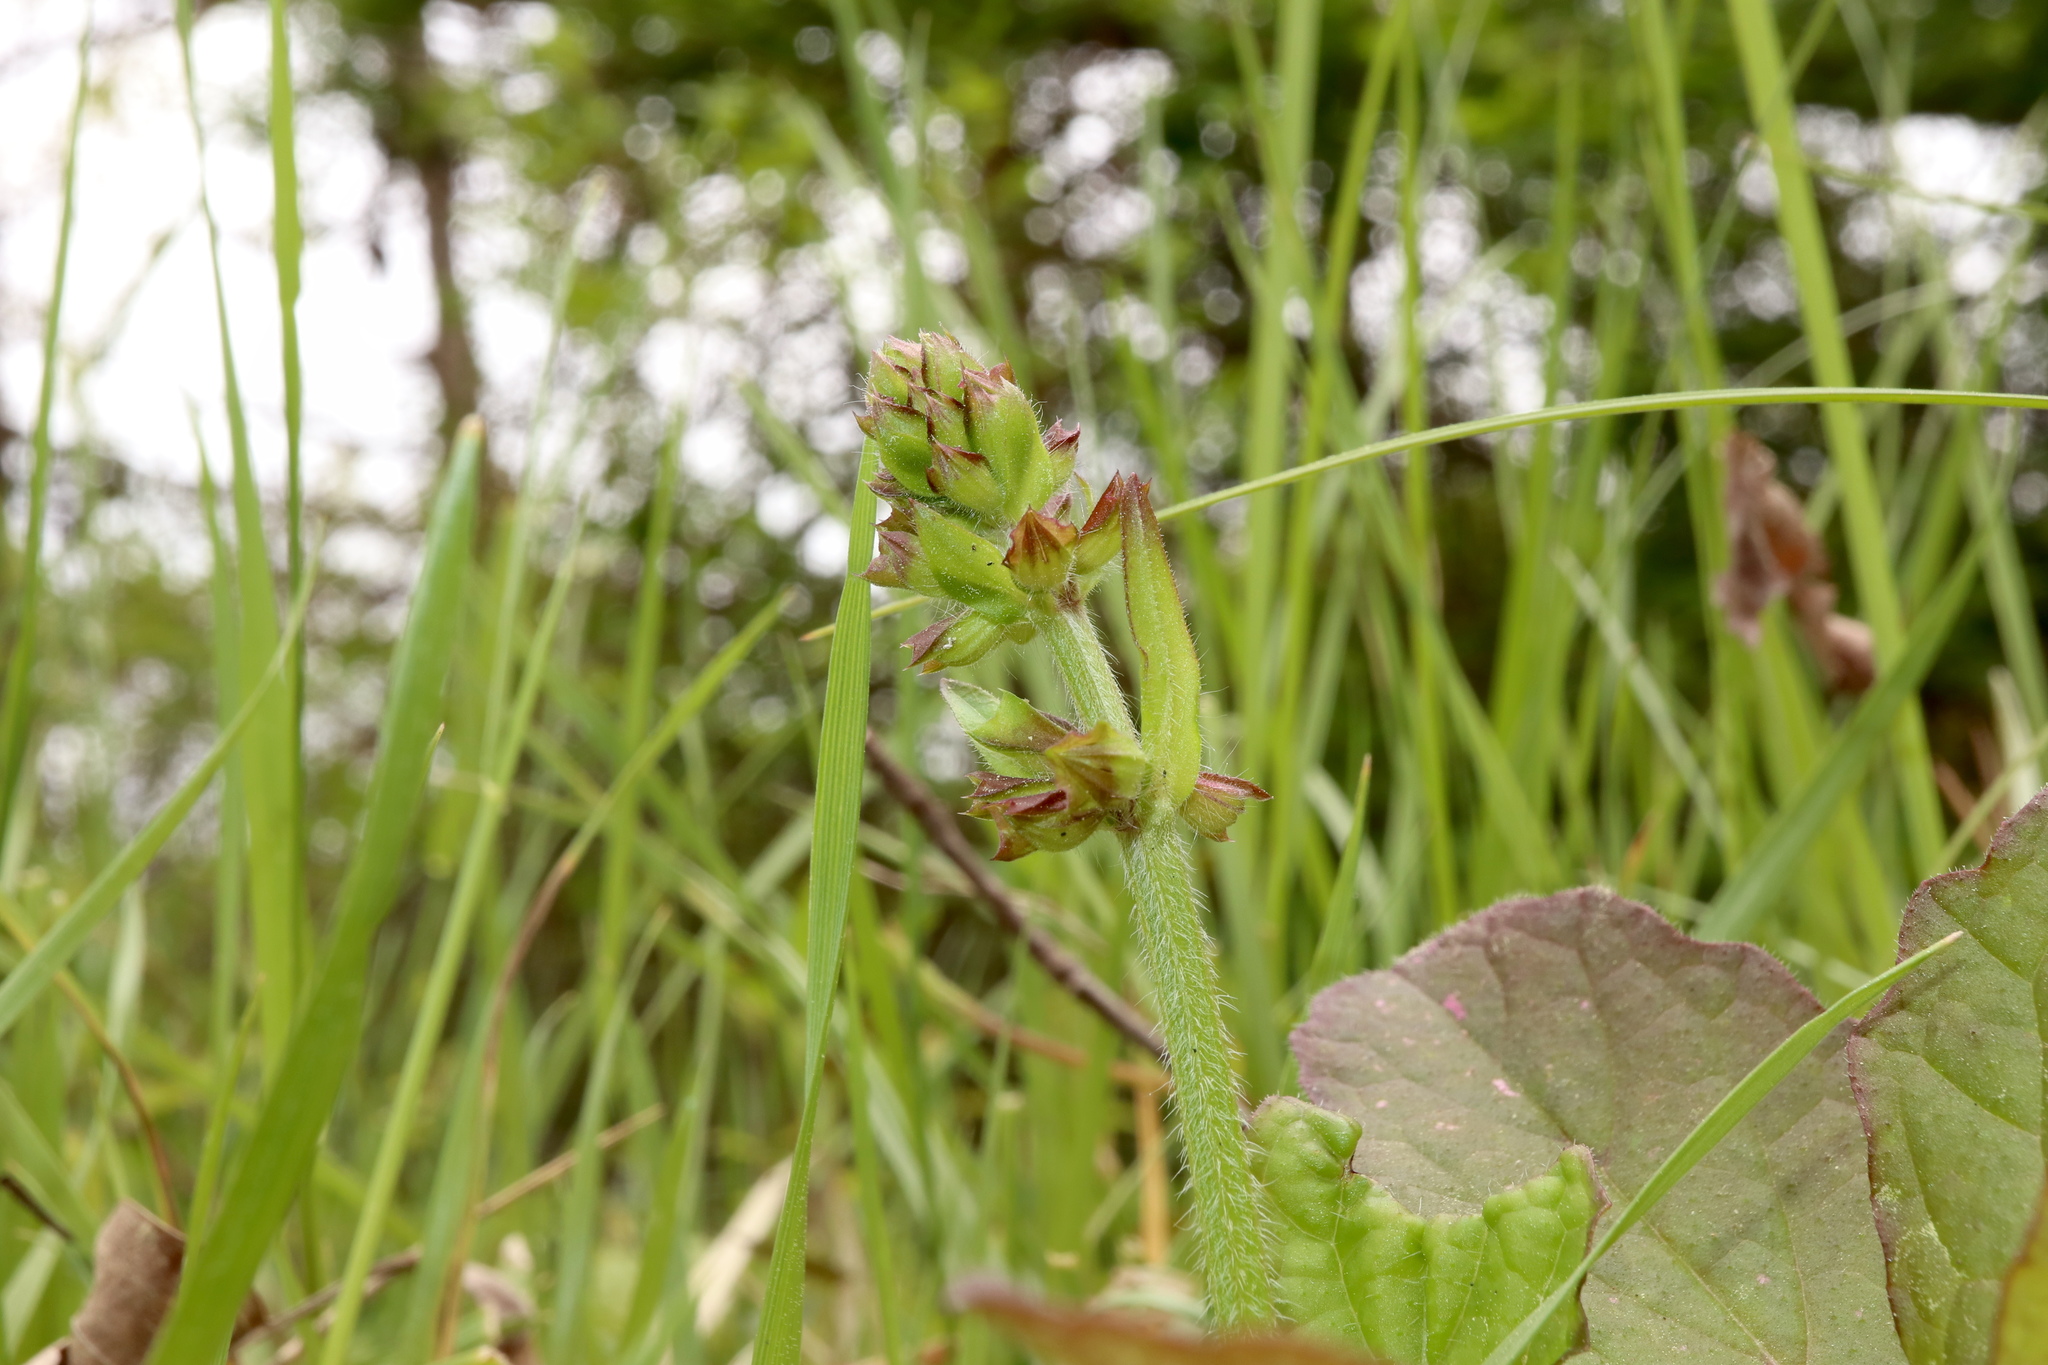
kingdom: Plantae
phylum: Tracheophyta
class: Magnoliopsida
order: Lamiales
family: Lamiaceae
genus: Salvia
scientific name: Salvia lyrata
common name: Cancerweed
